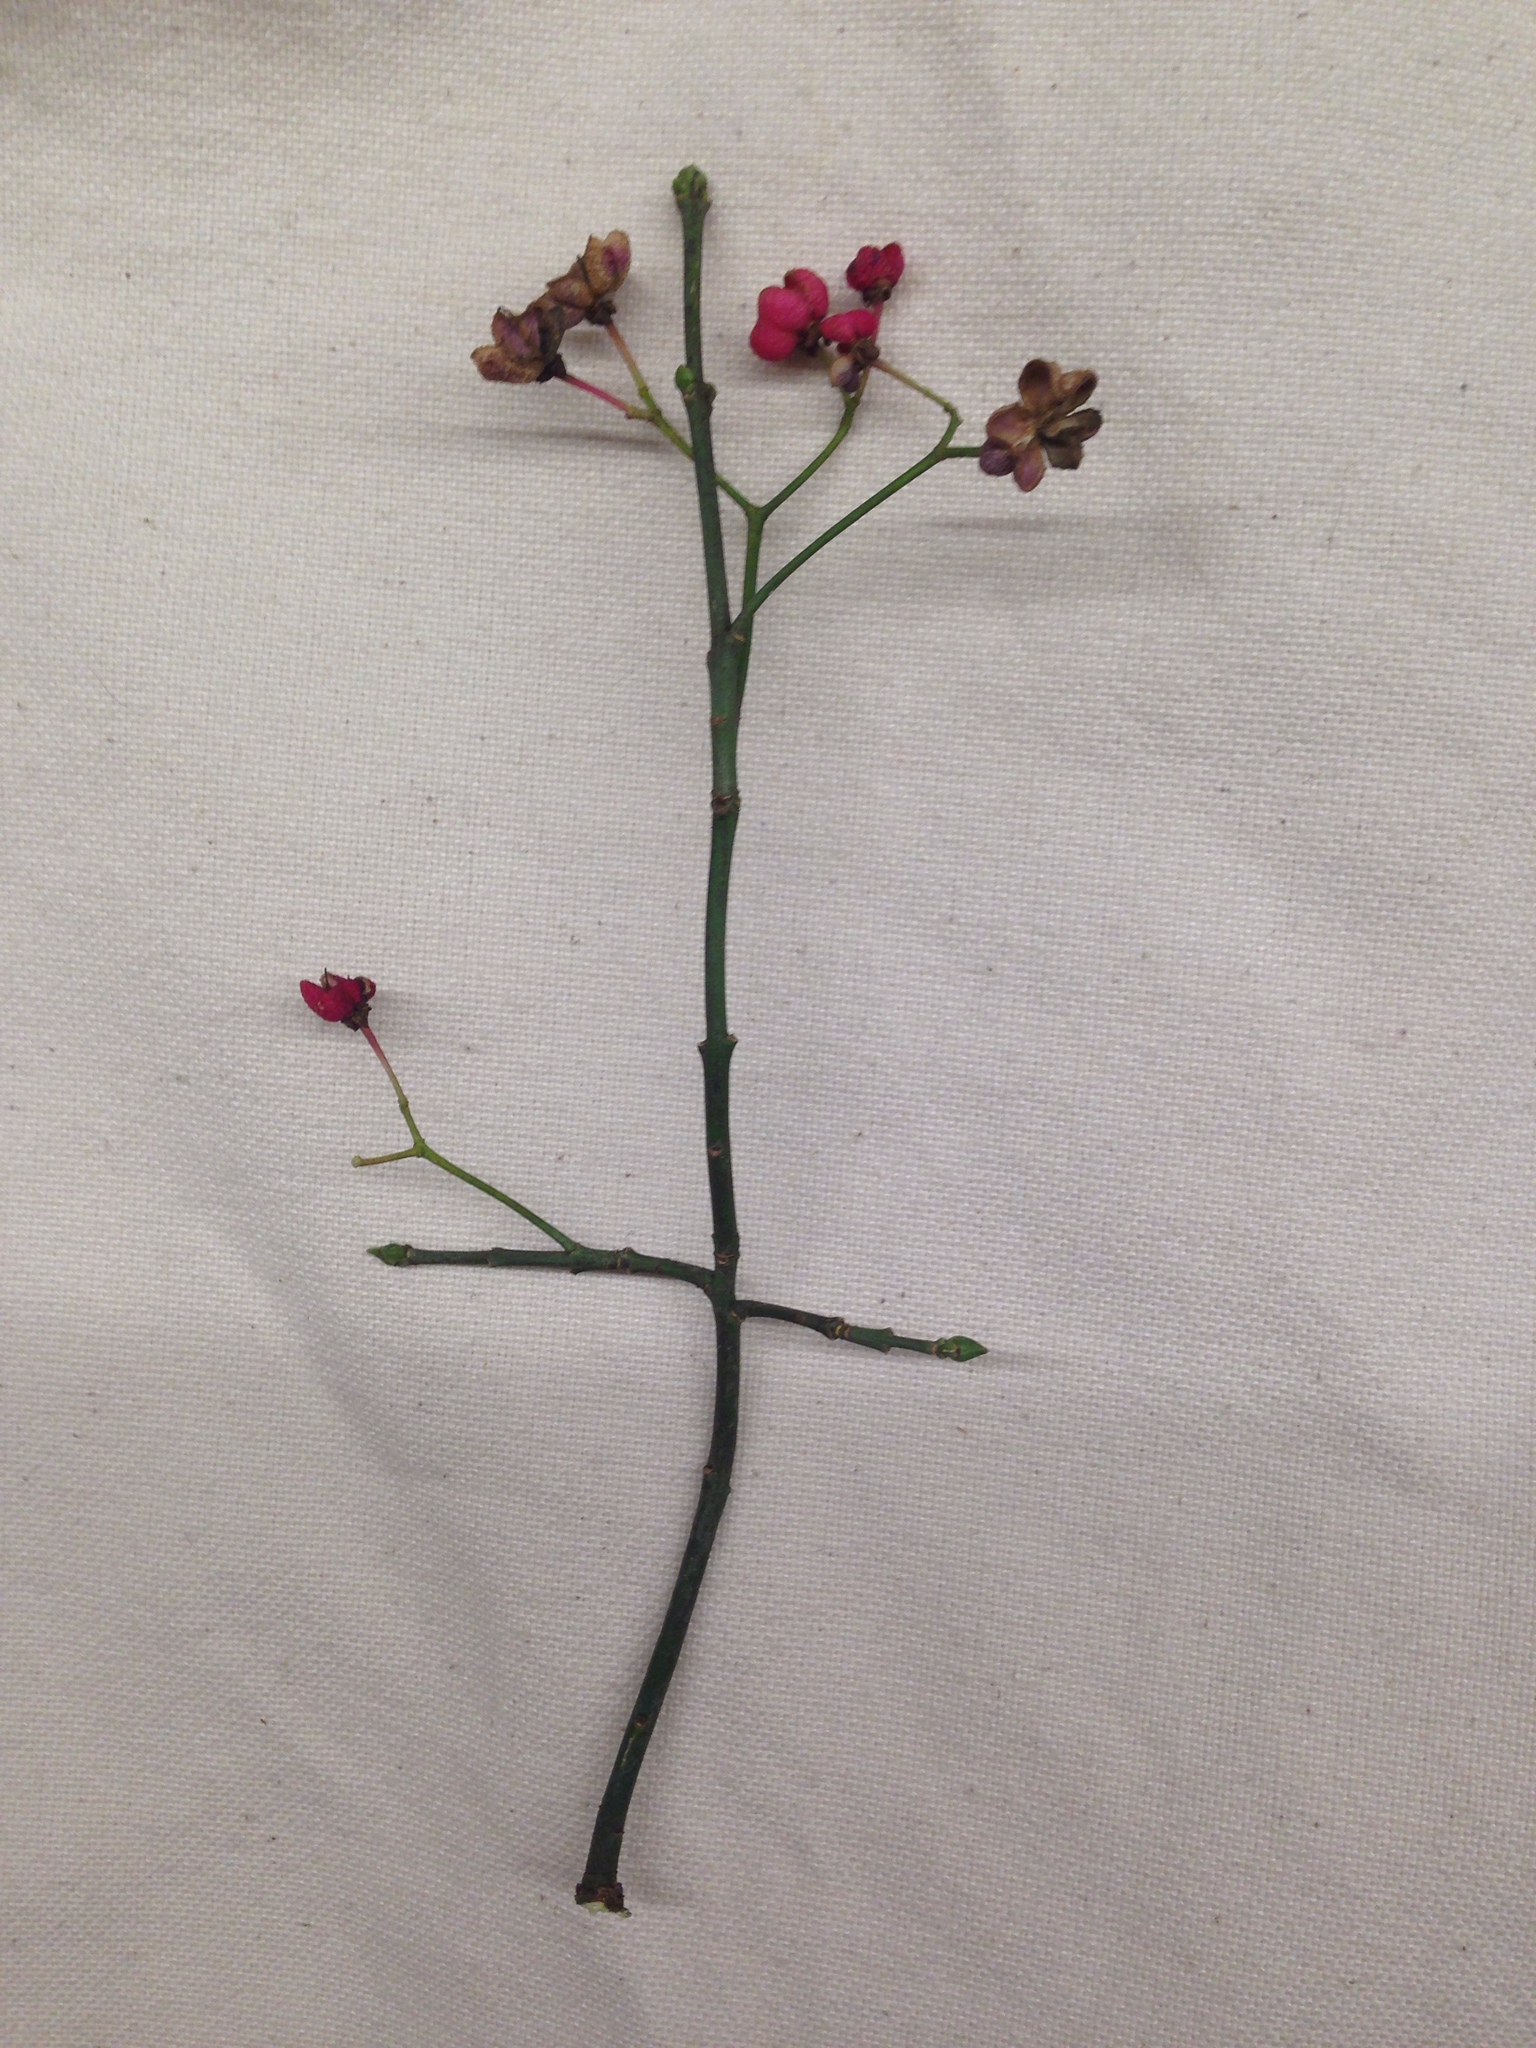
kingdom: Plantae
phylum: Tracheophyta
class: Magnoliopsida
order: Celastrales
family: Celastraceae
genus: Euonymus
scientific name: Euonymus europaeus
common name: Spindle
